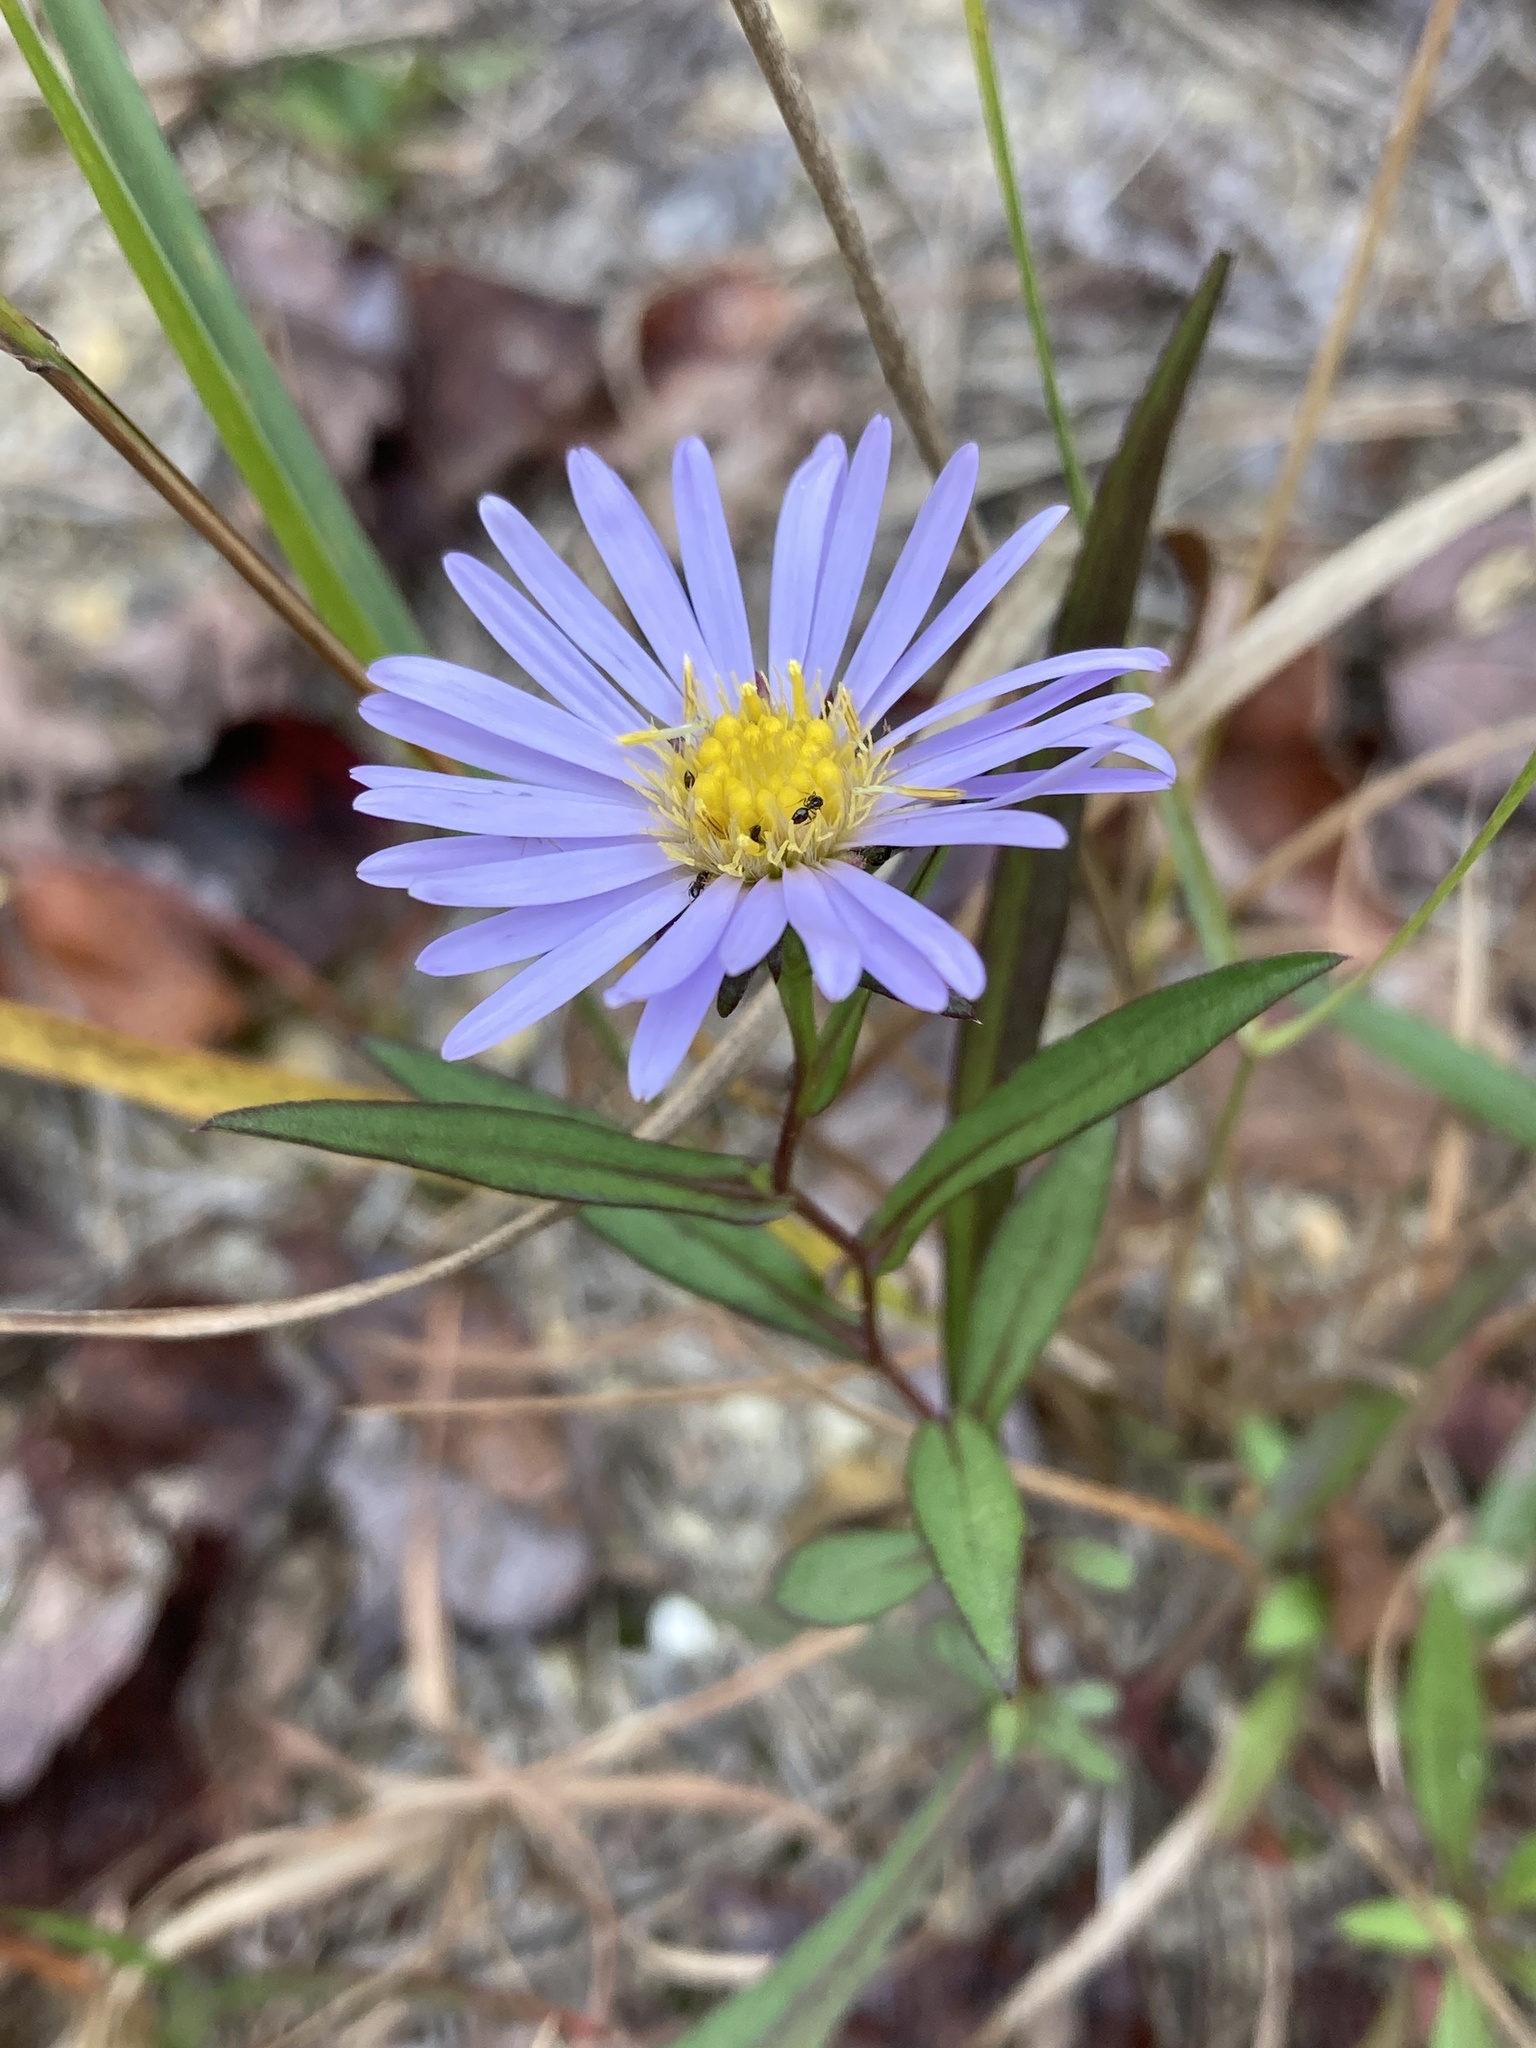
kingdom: Plantae
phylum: Tracheophyta
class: Magnoliopsida
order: Asterales
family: Asteraceae
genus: Symphyotrichum
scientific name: Symphyotrichum novi-belgii
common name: Michaelmas daisy
